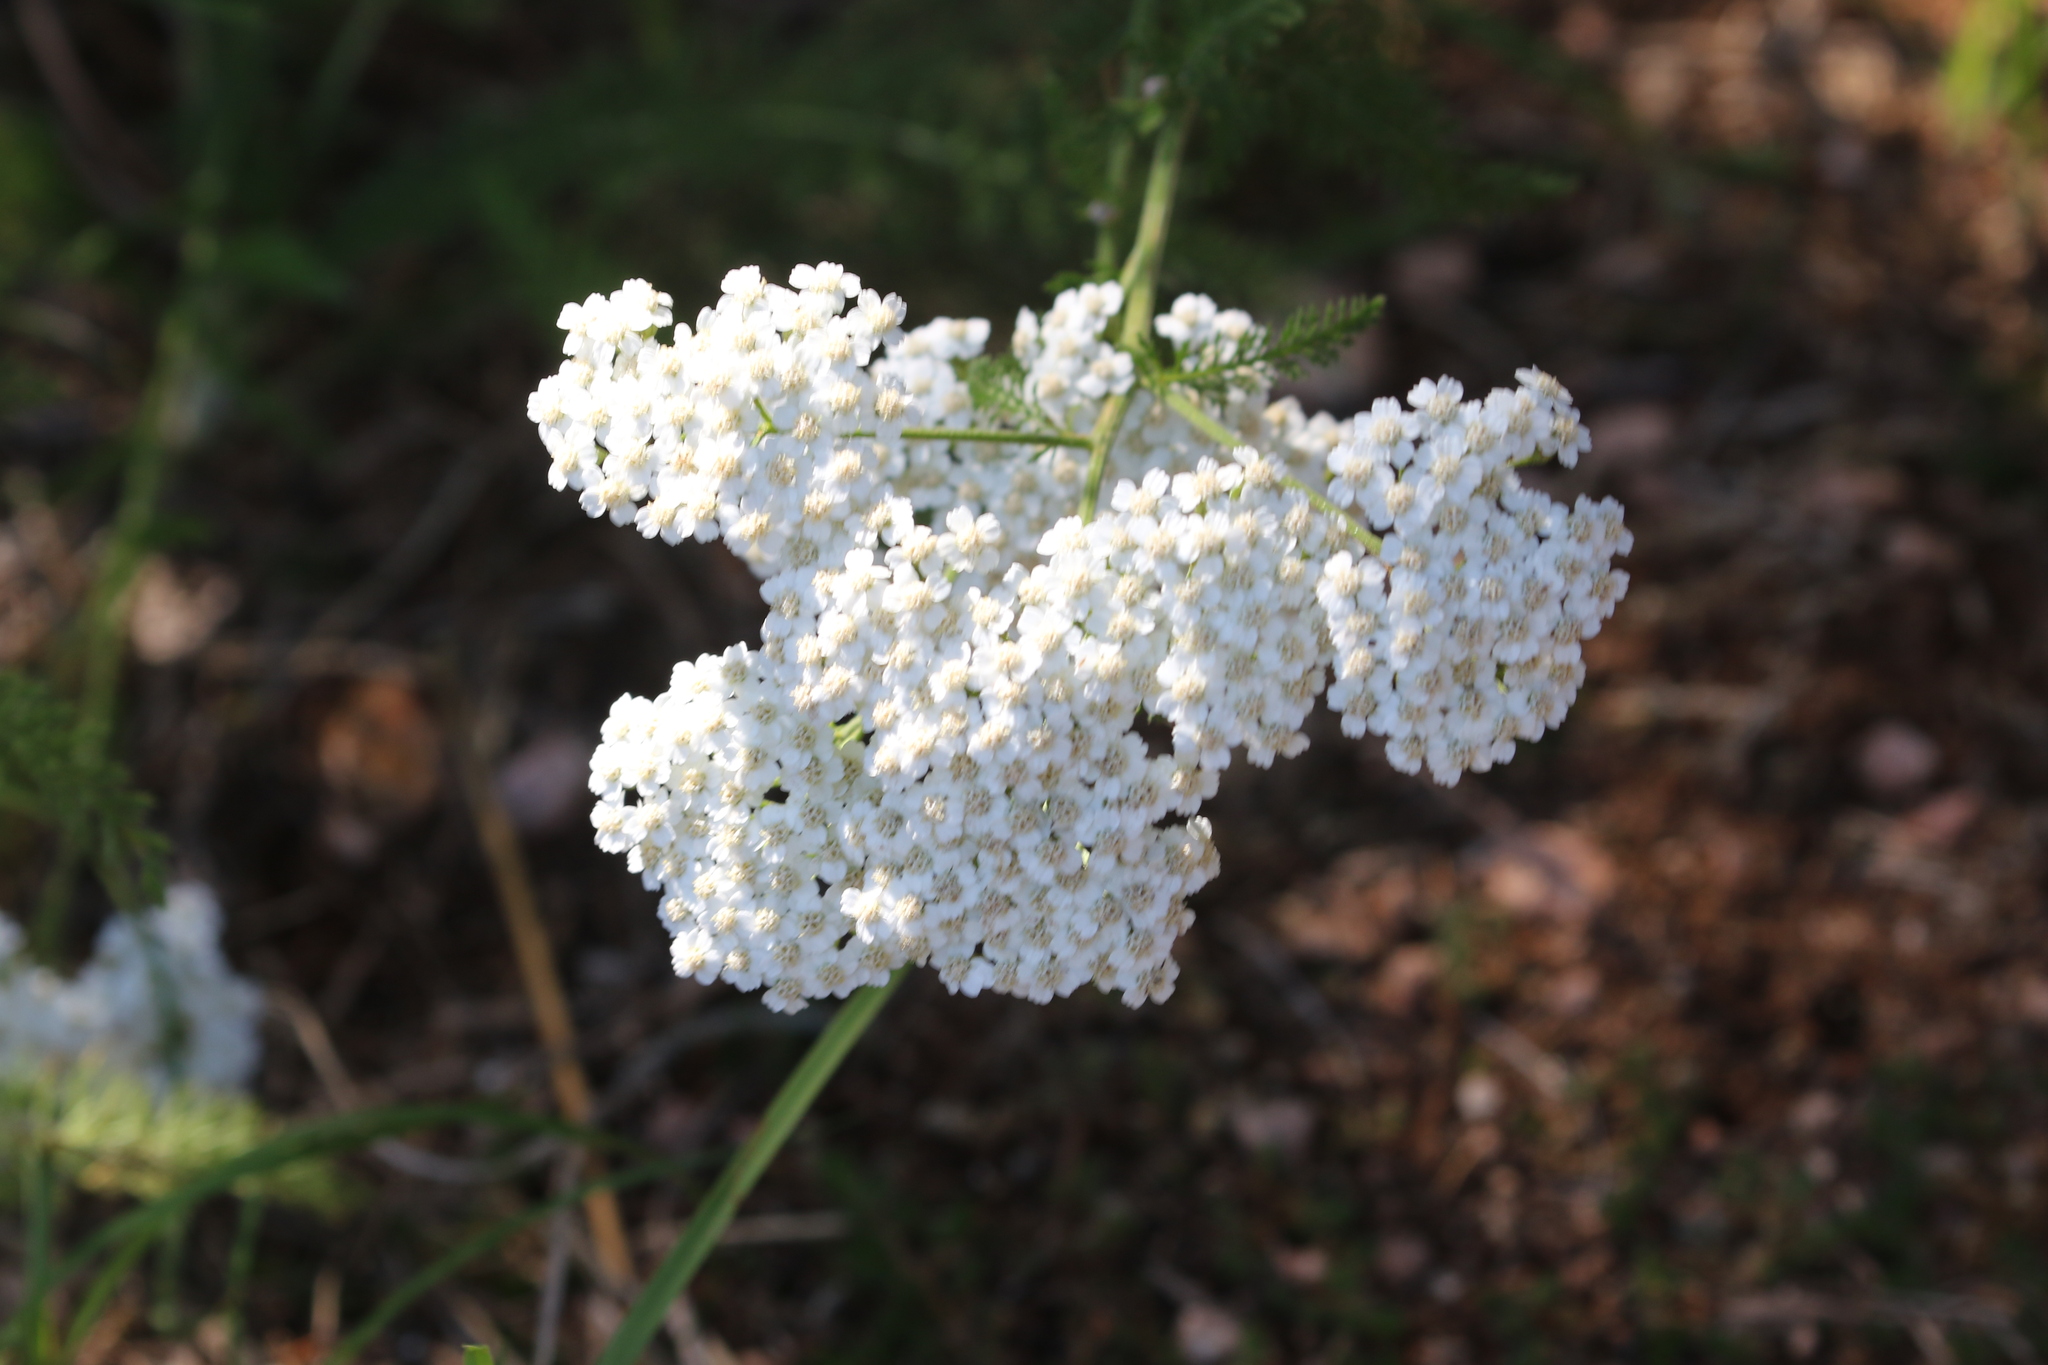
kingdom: Plantae
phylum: Tracheophyta
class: Magnoliopsida
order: Asterales
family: Asteraceae
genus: Achillea
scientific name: Achillea millefolium
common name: Yarrow
